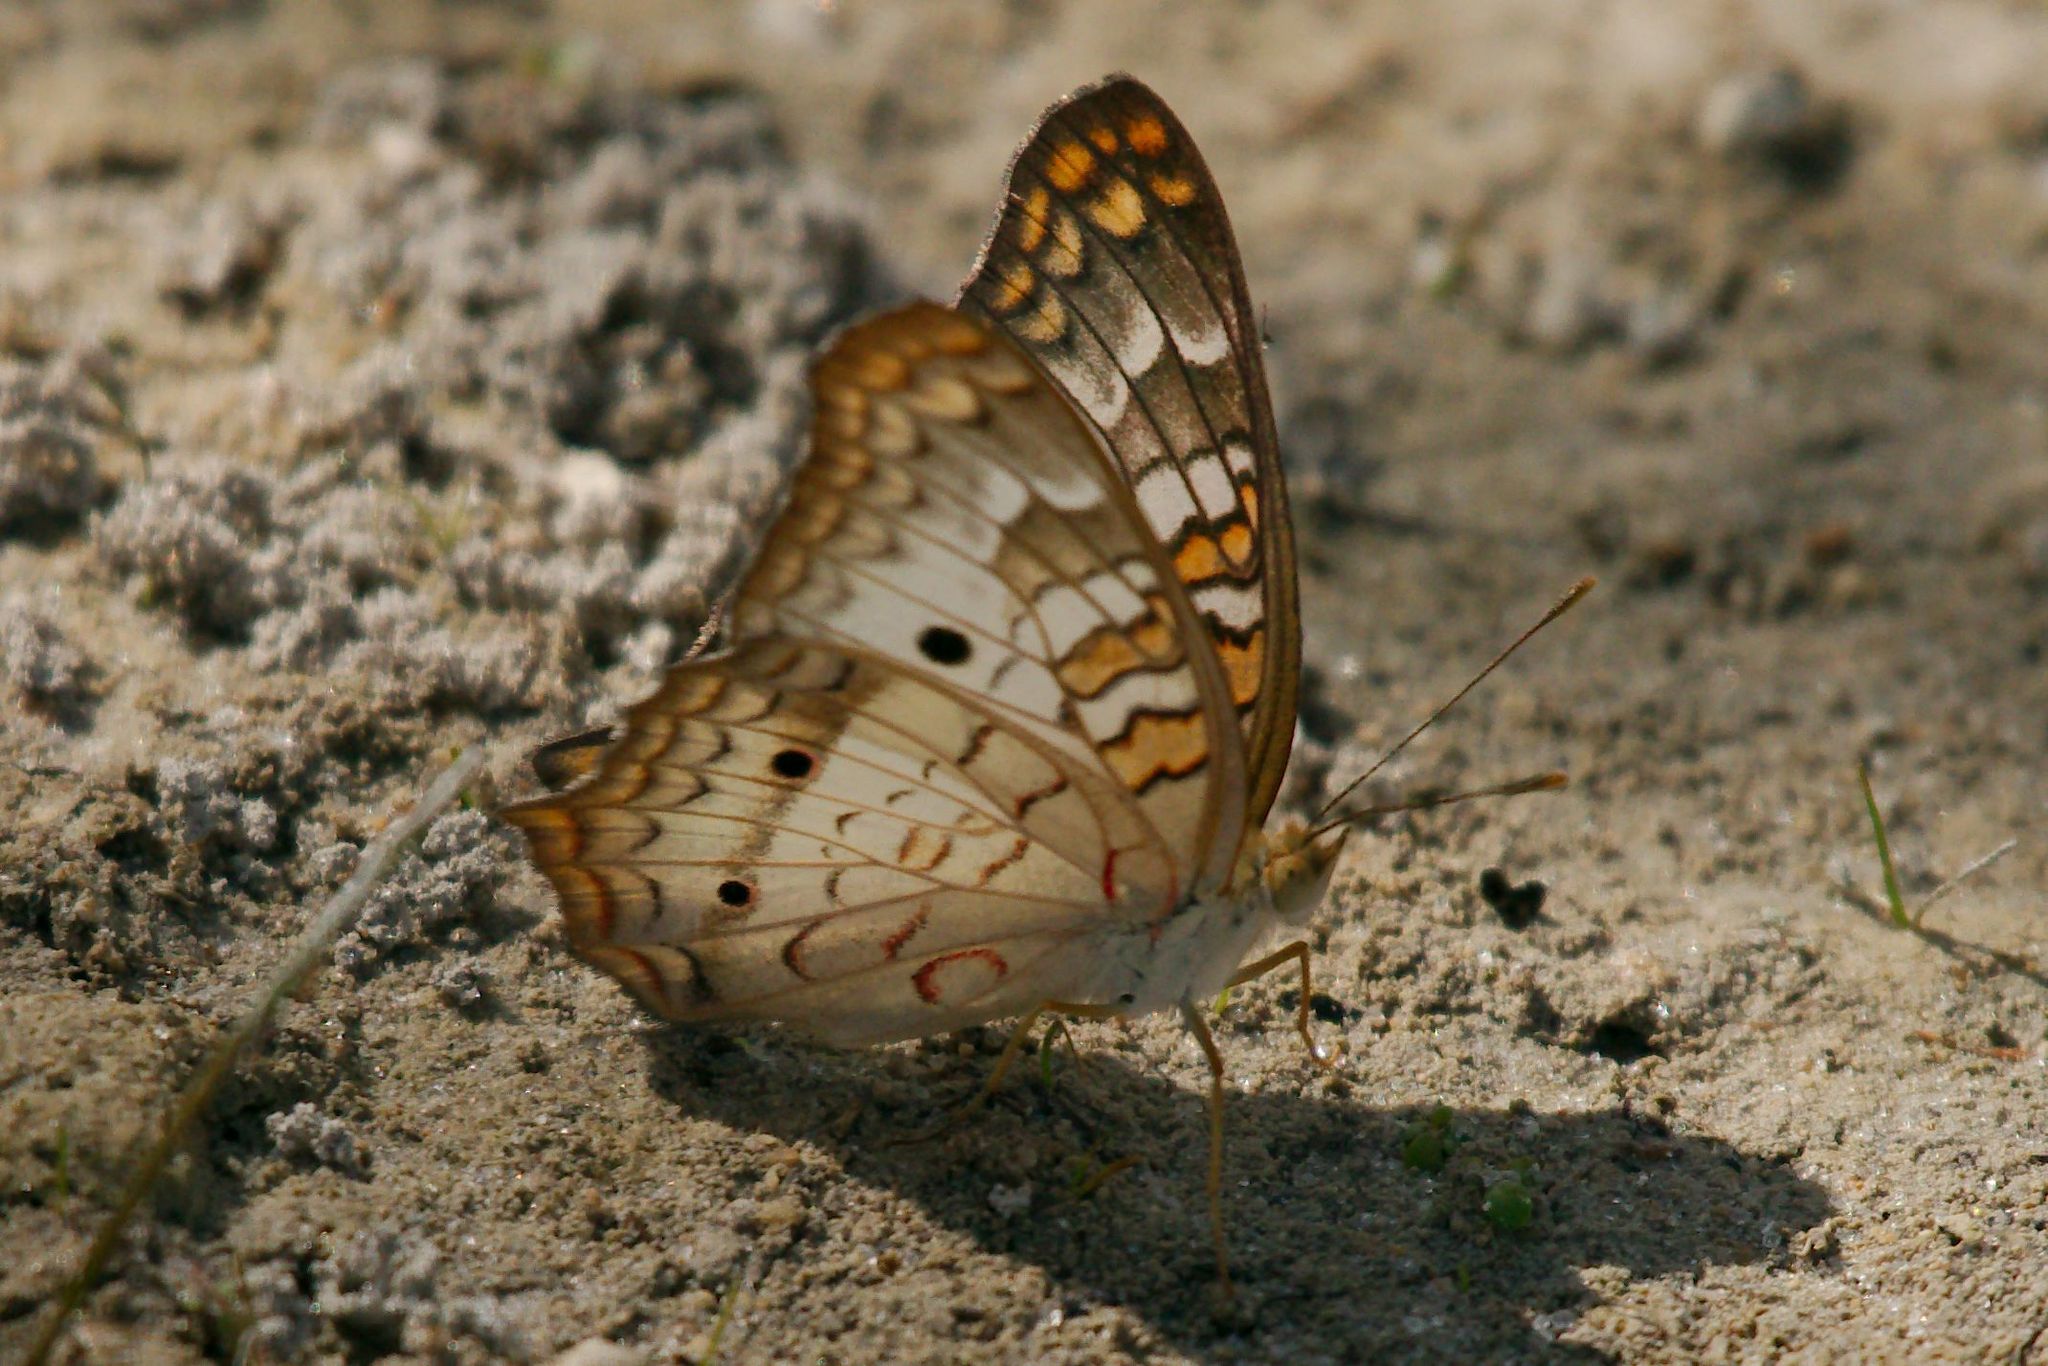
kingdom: Animalia
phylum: Arthropoda
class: Insecta
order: Lepidoptera
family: Nymphalidae
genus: Anartia
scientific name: Anartia jatrophae
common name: White peacock
